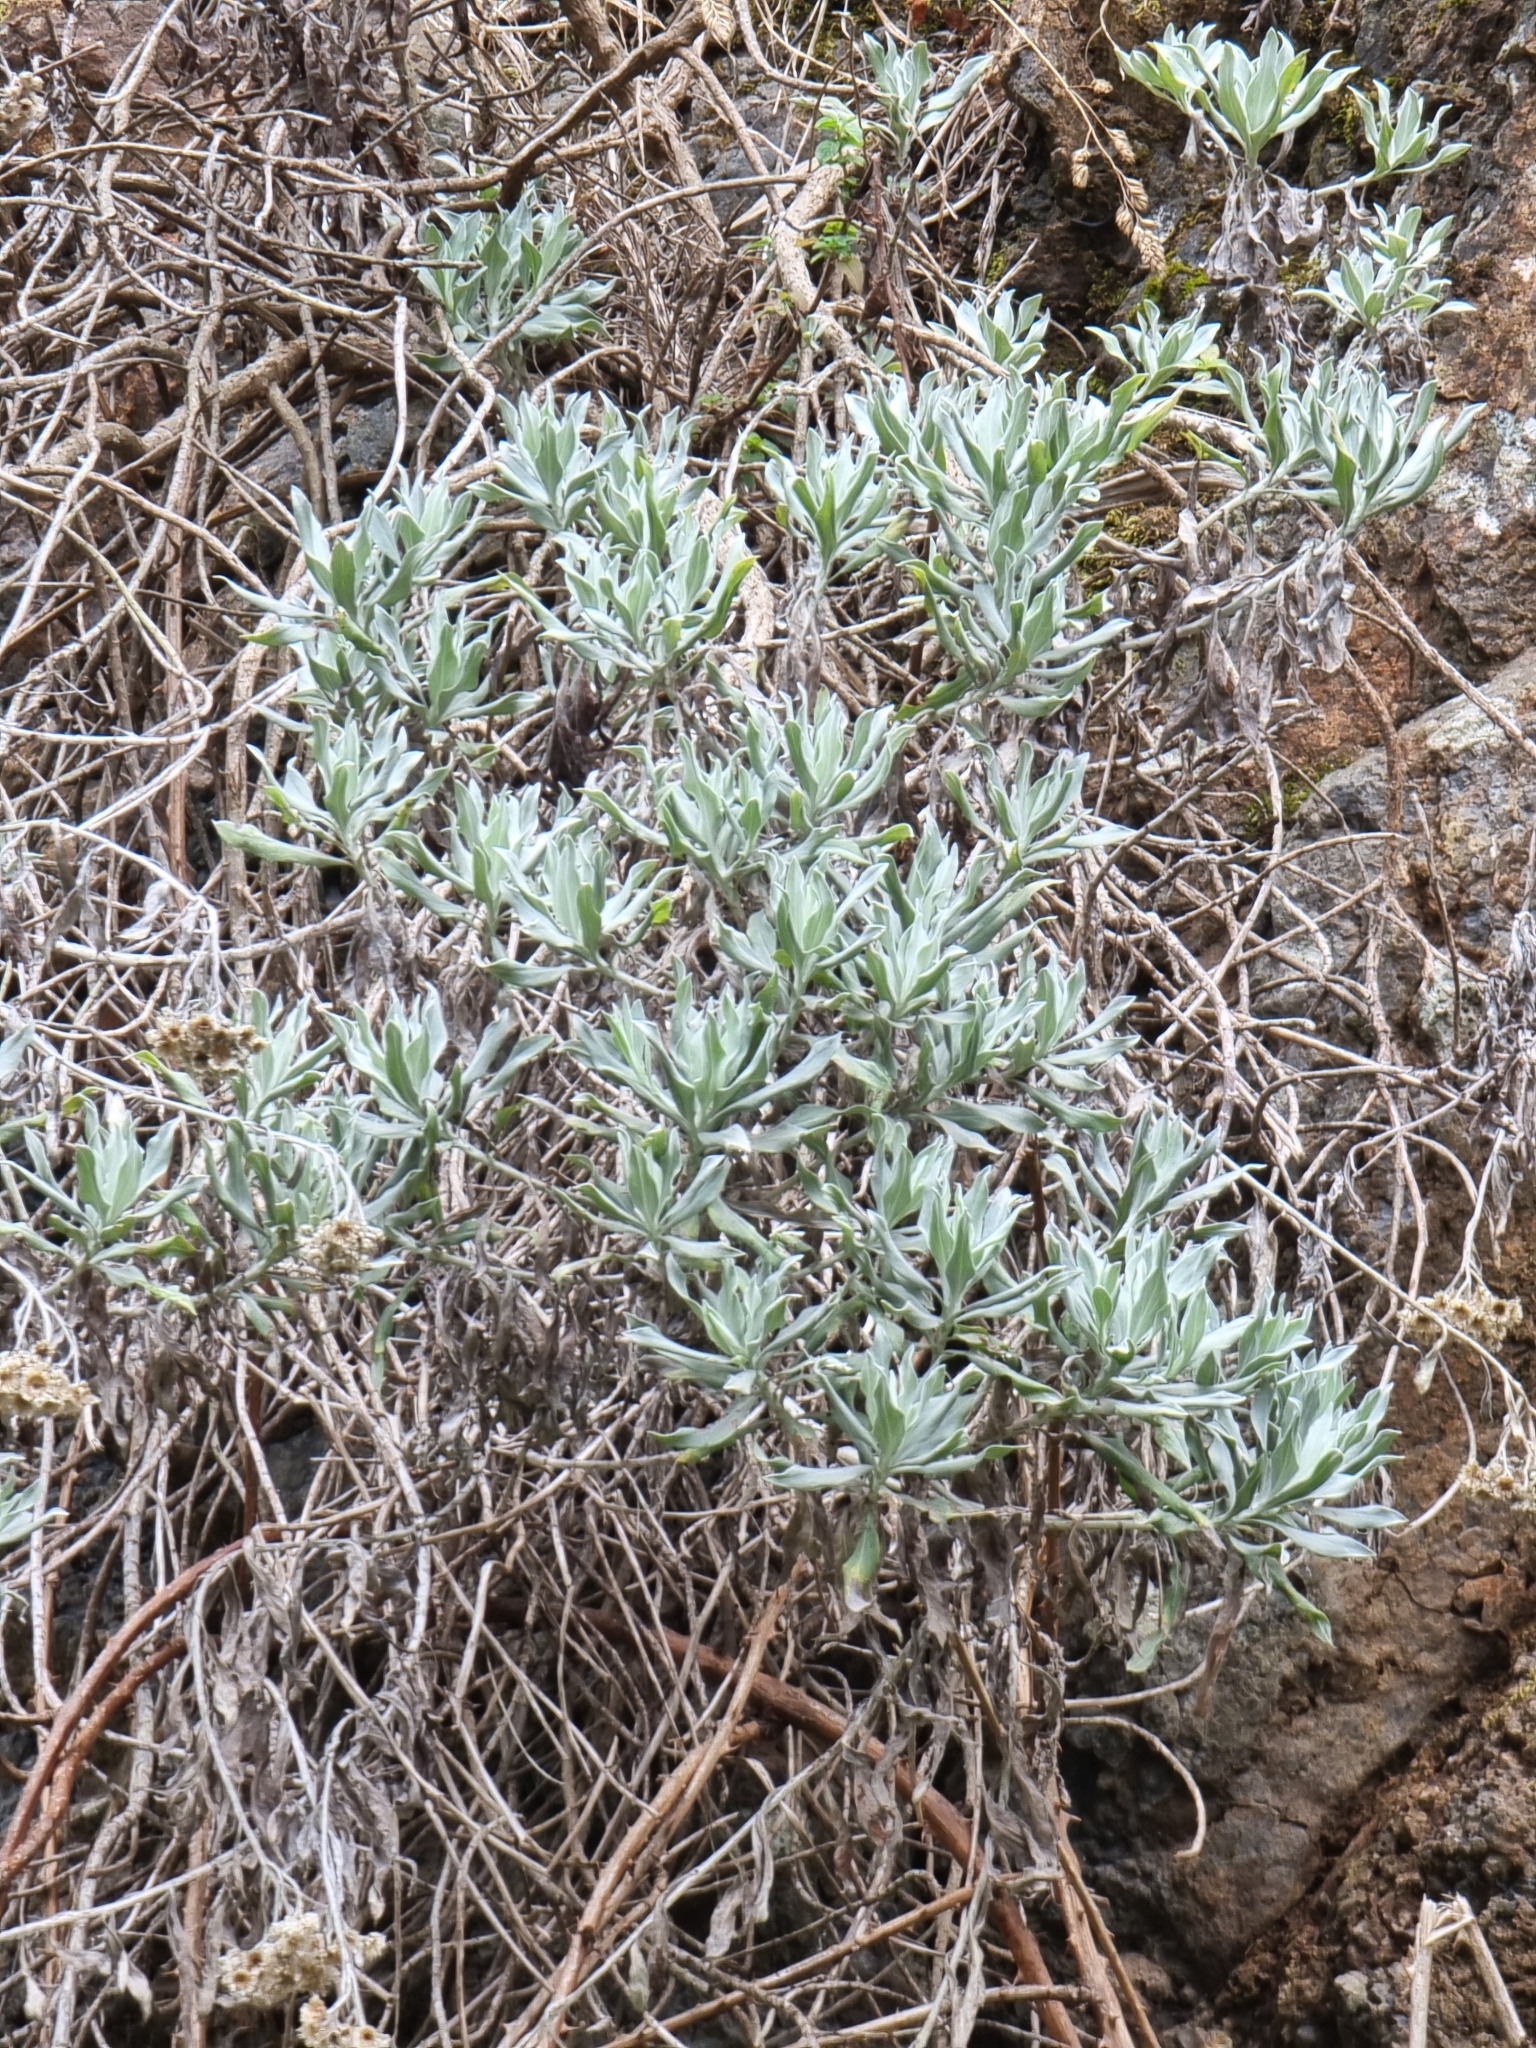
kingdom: Plantae
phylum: Tracheophyta
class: Magnoliopsida
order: Asterales
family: Asteraceae
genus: Helichrysum
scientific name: Helichrysum melaleucum
